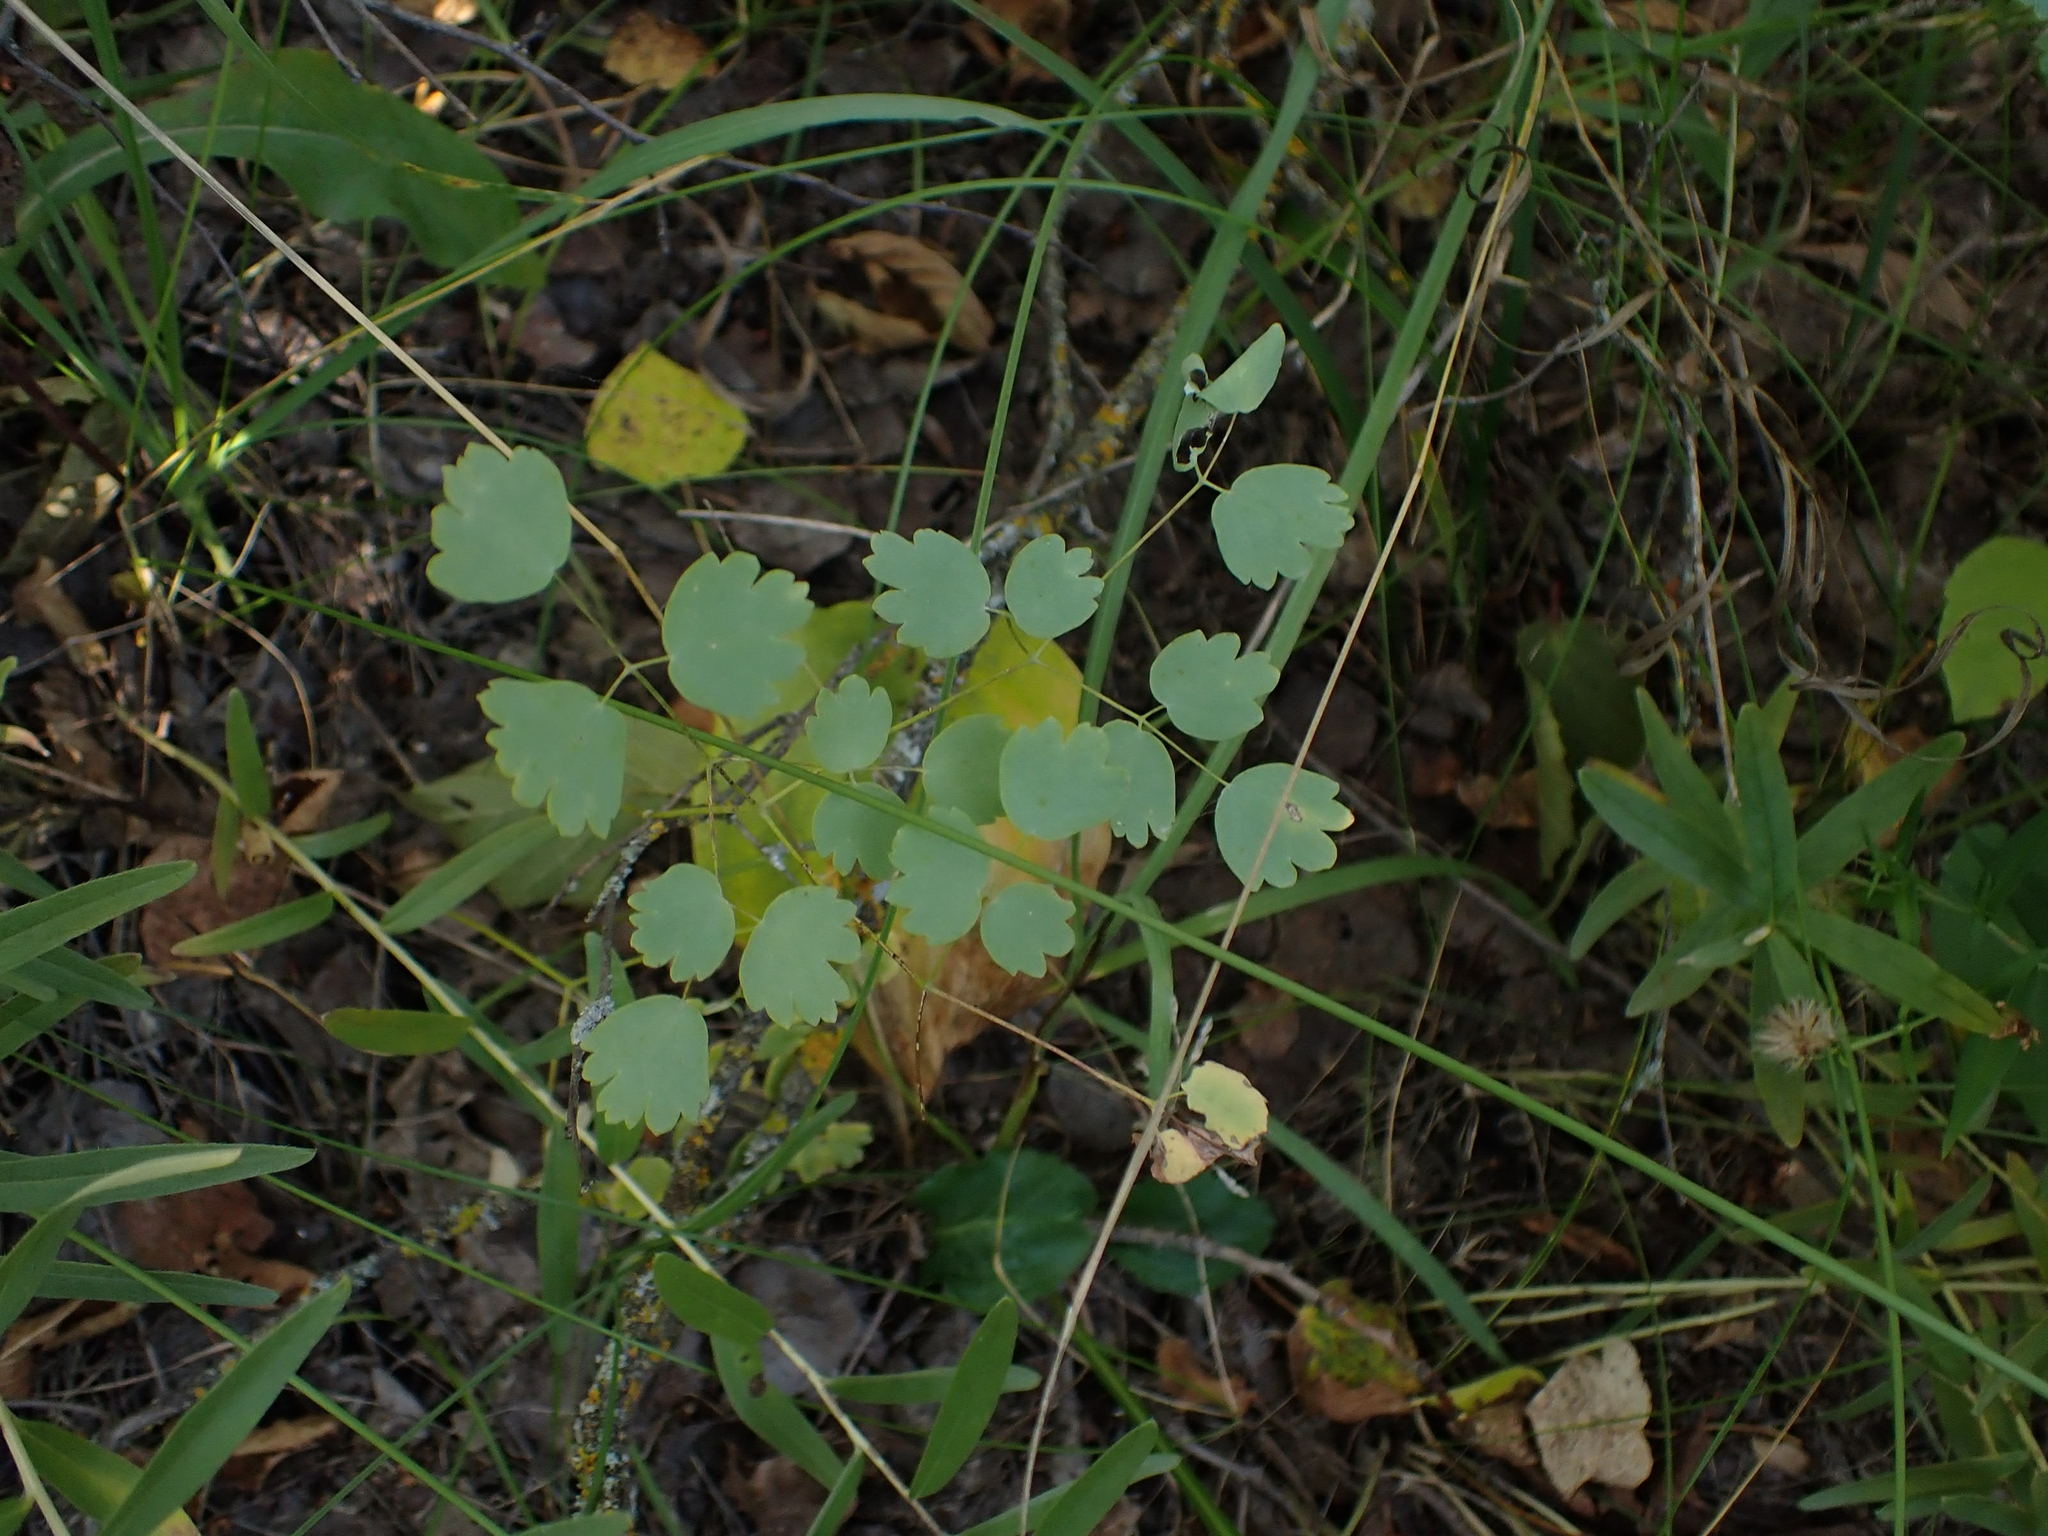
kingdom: Plantae
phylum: Tracheophyta
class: Magnoliopsida
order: Ranunculales
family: Ranunculaceae
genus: Thalictrum
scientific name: Thalictrum venulosum
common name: Early meadow-rue
